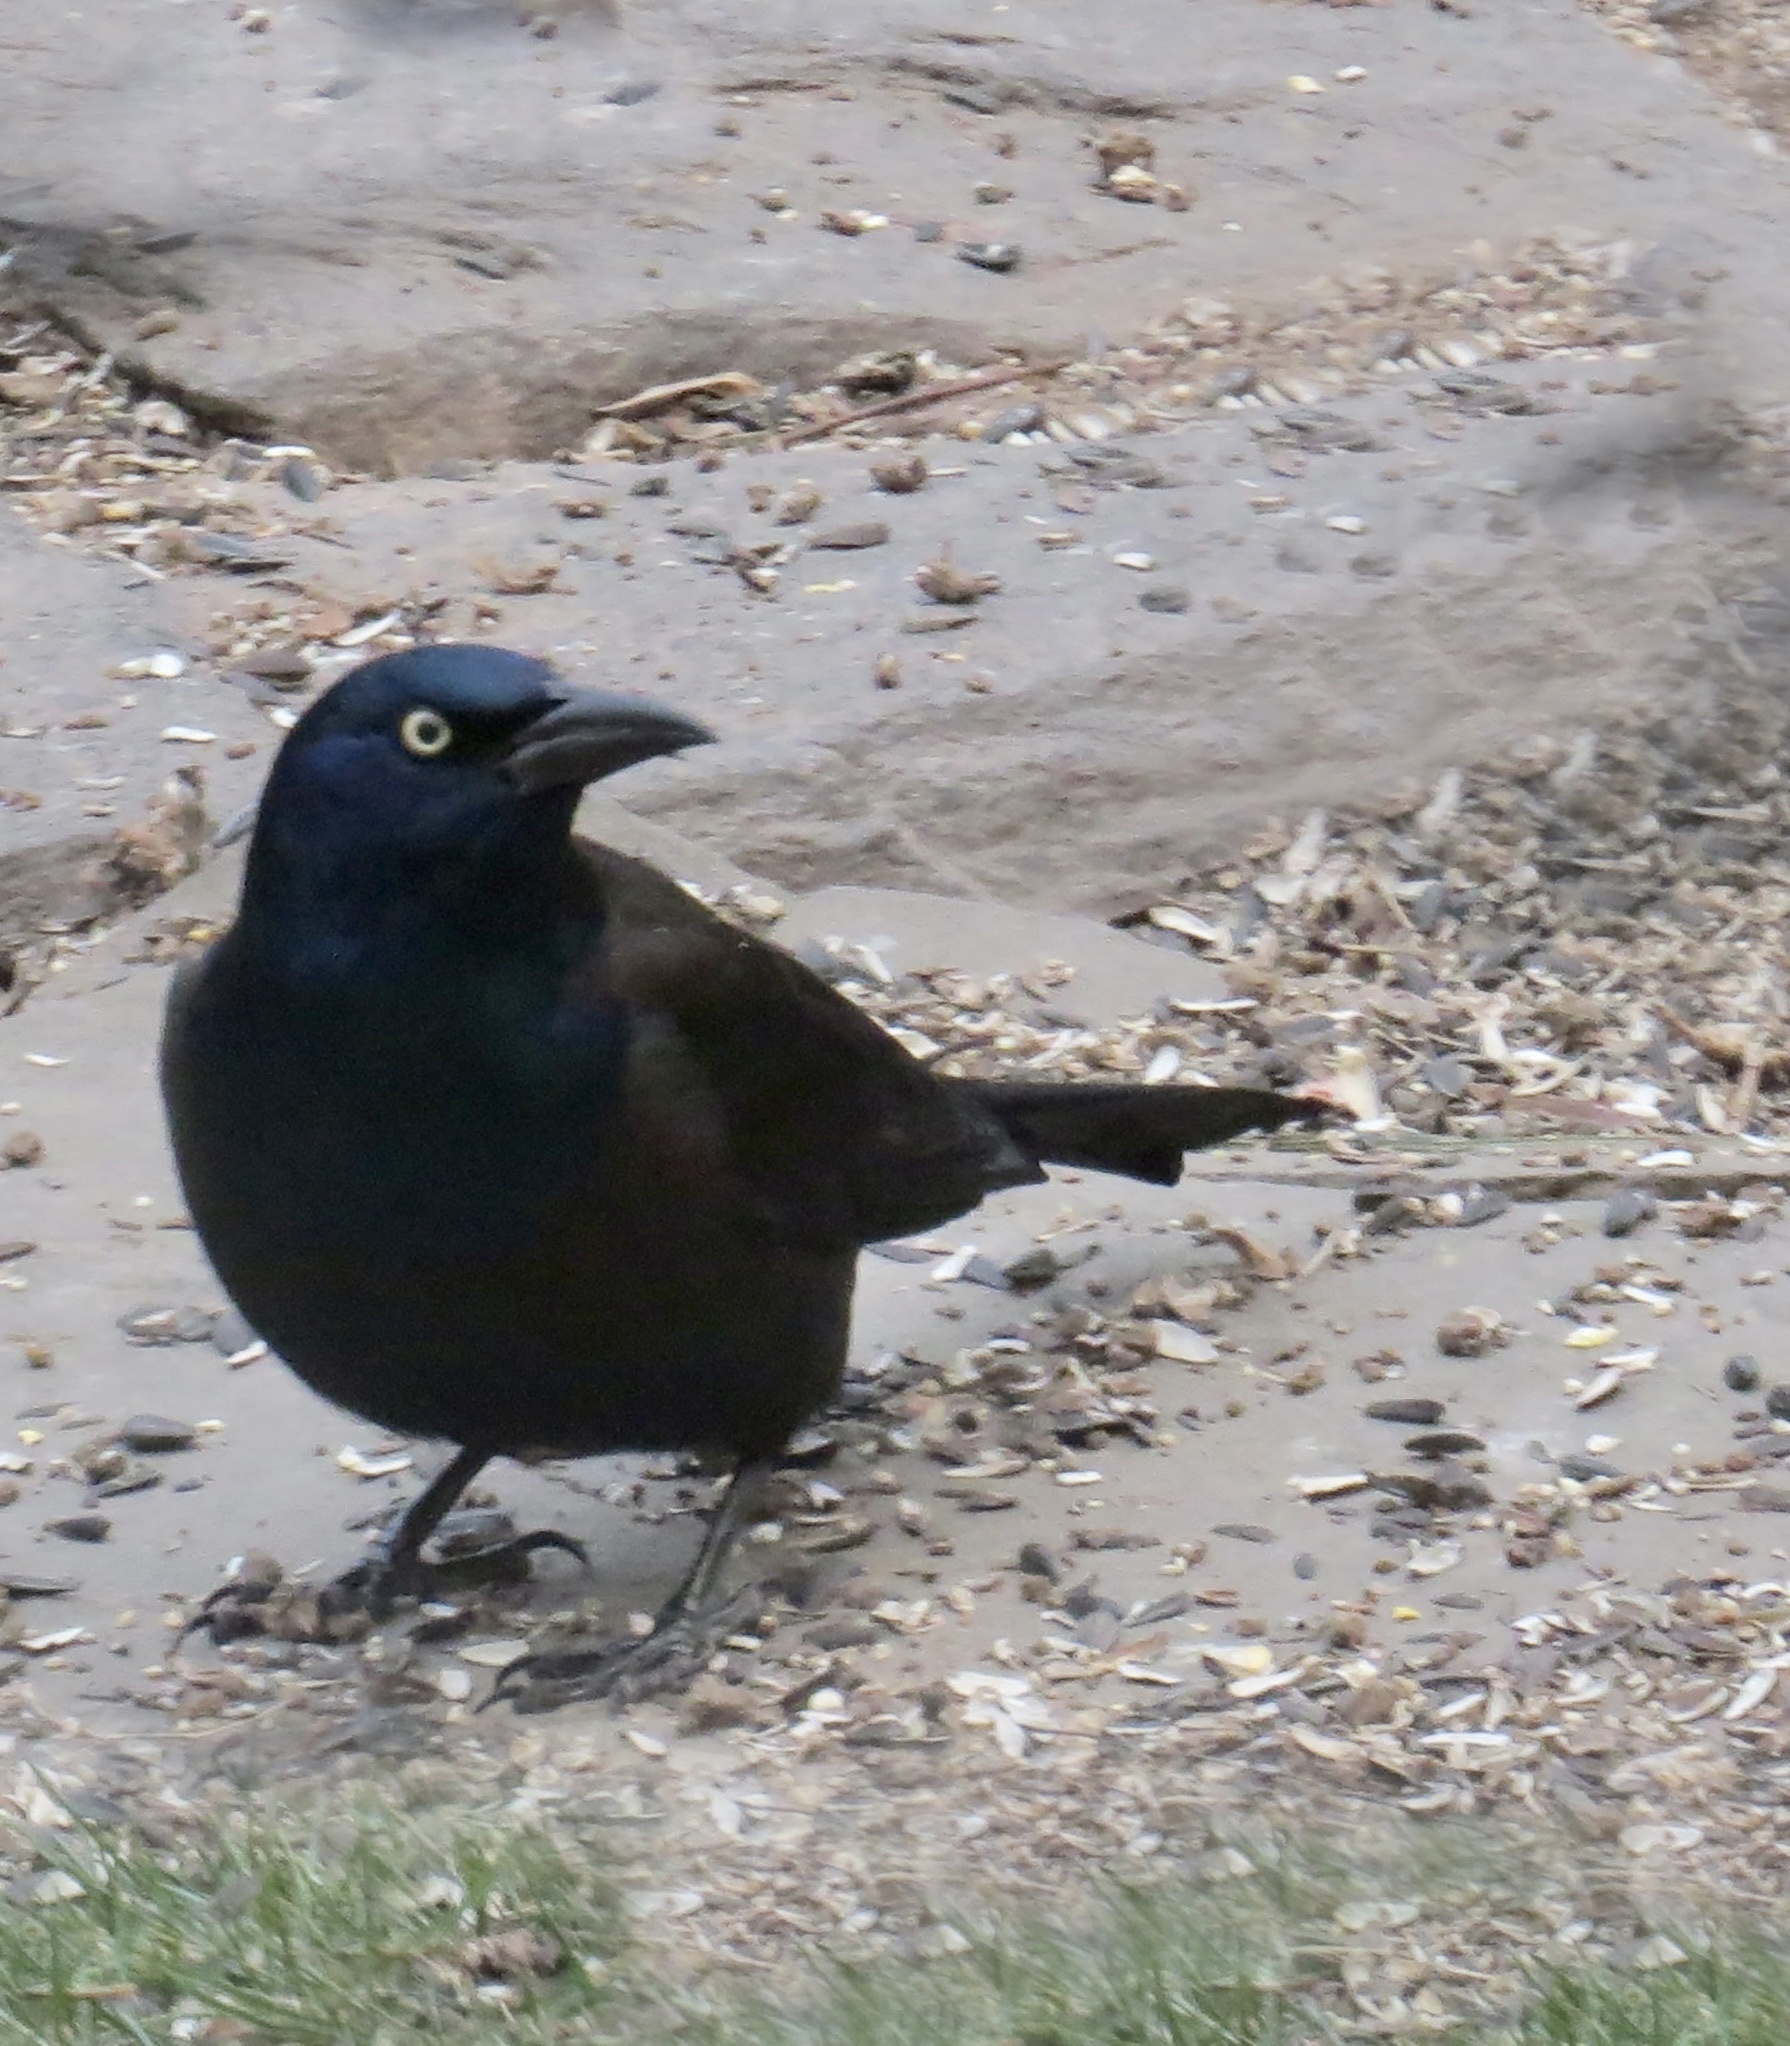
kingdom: Animalia
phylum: Chordata
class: Aves
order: Passeriformes
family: Icteridae
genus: Quiscalus
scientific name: Quiscalus quiscula
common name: Common grackle
